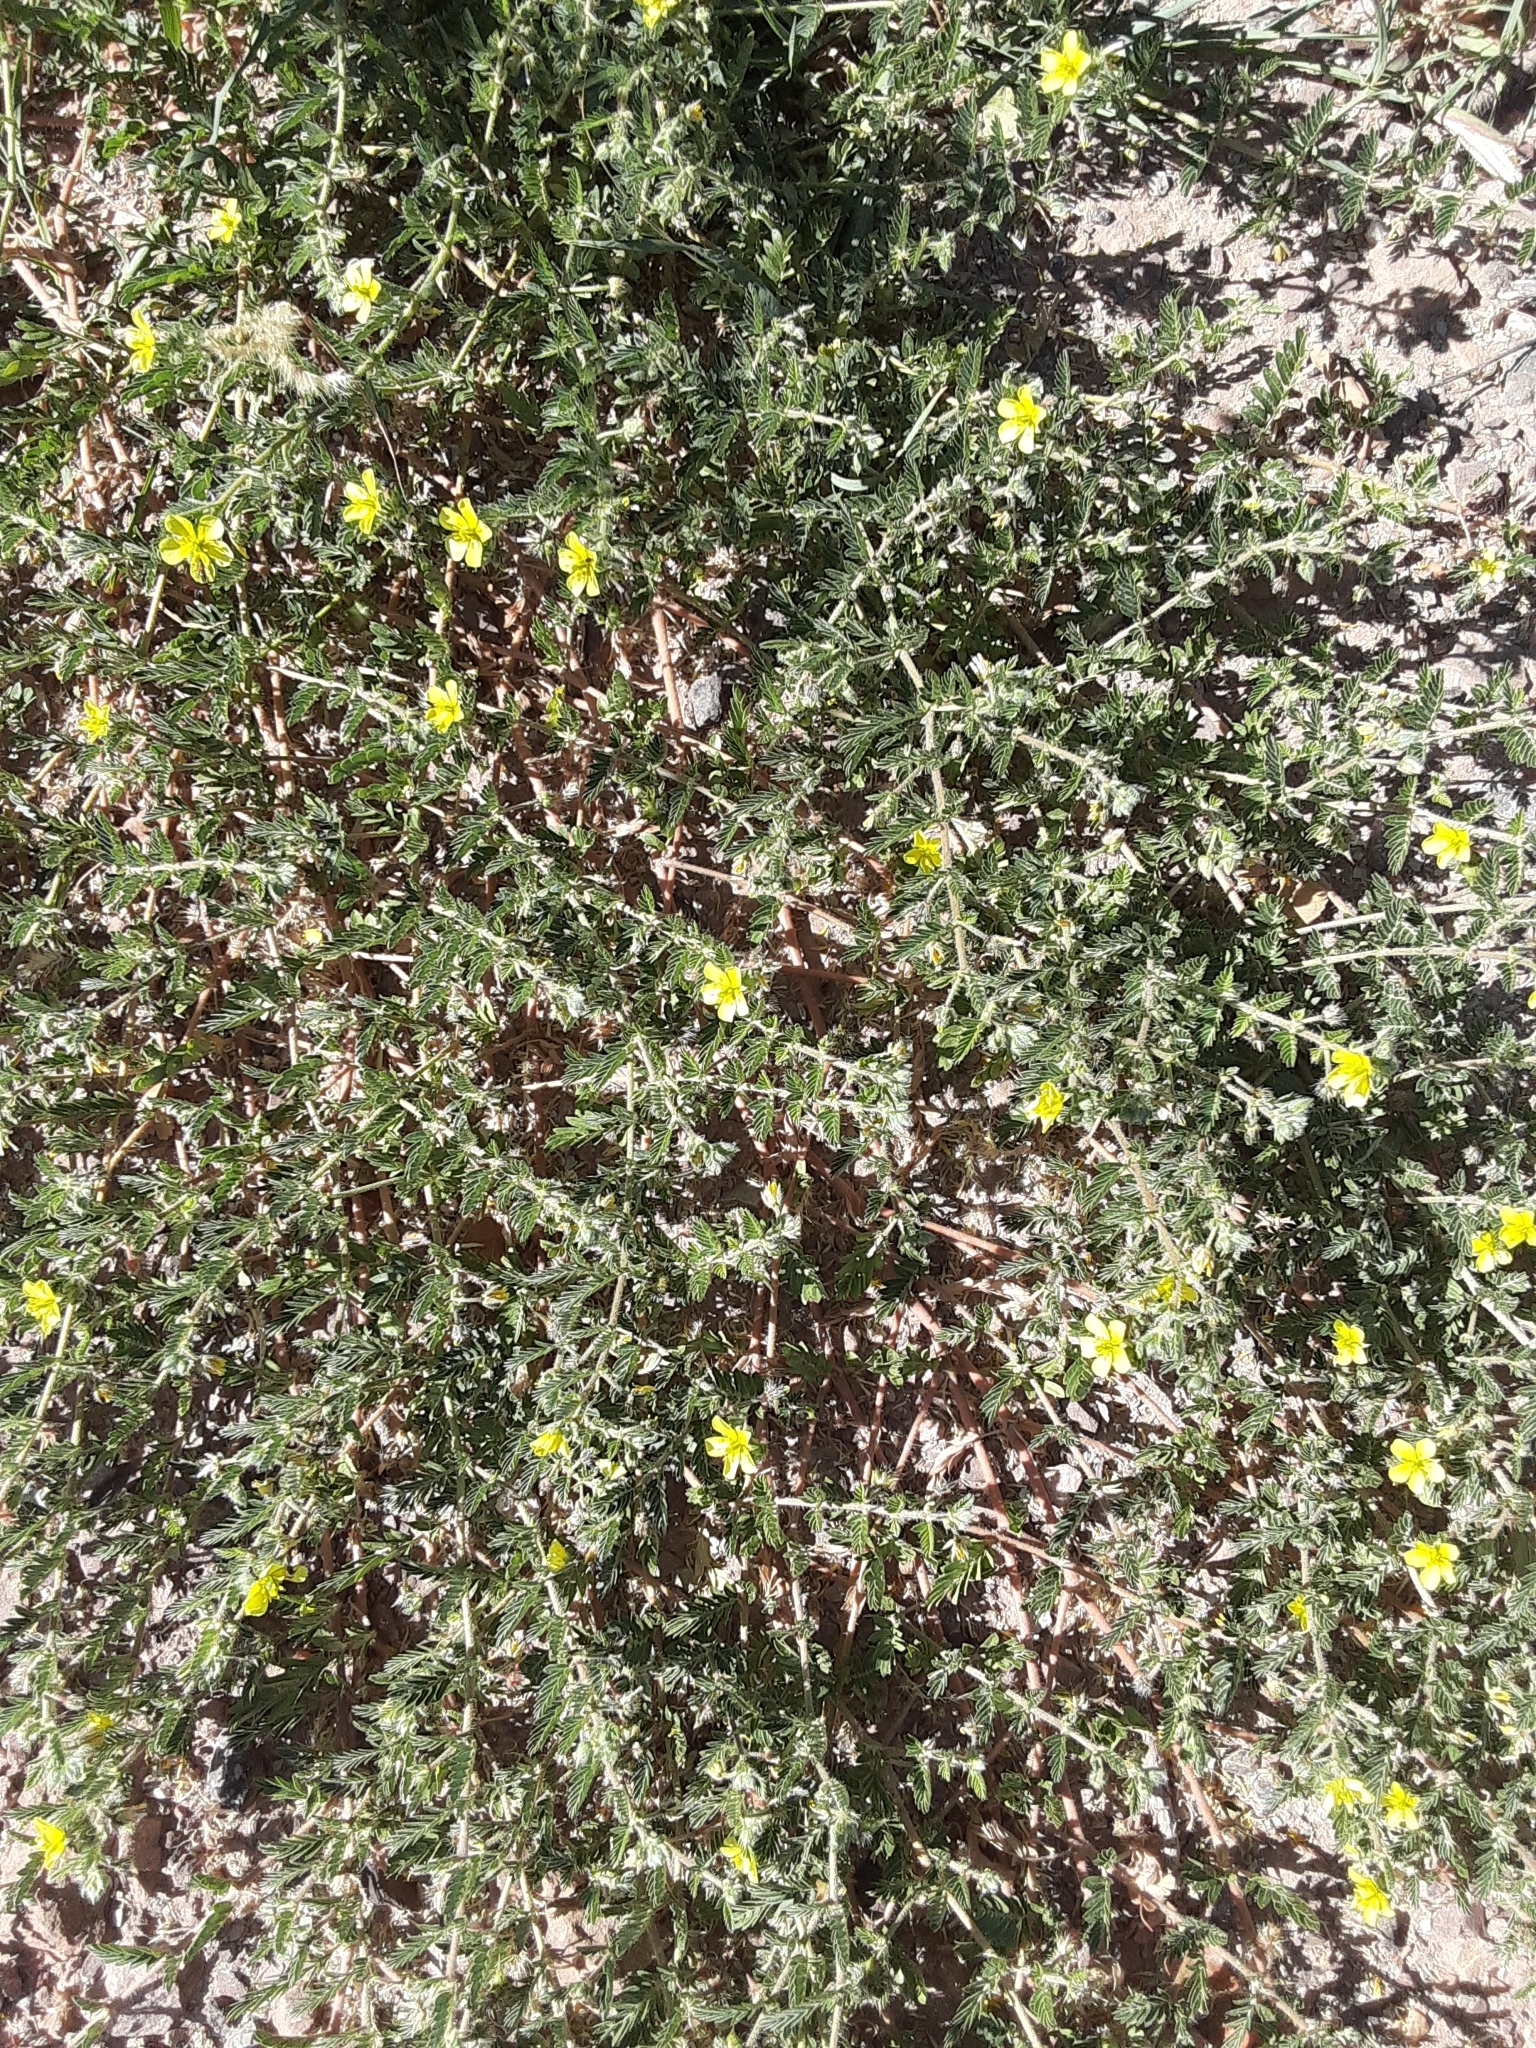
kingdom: Plantae
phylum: Tracheophyta
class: Magnoliopsida
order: Zygophyllales
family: Zygophyllaceae
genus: Tribulus
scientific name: Tribulus terrestris
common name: Puncturevine
